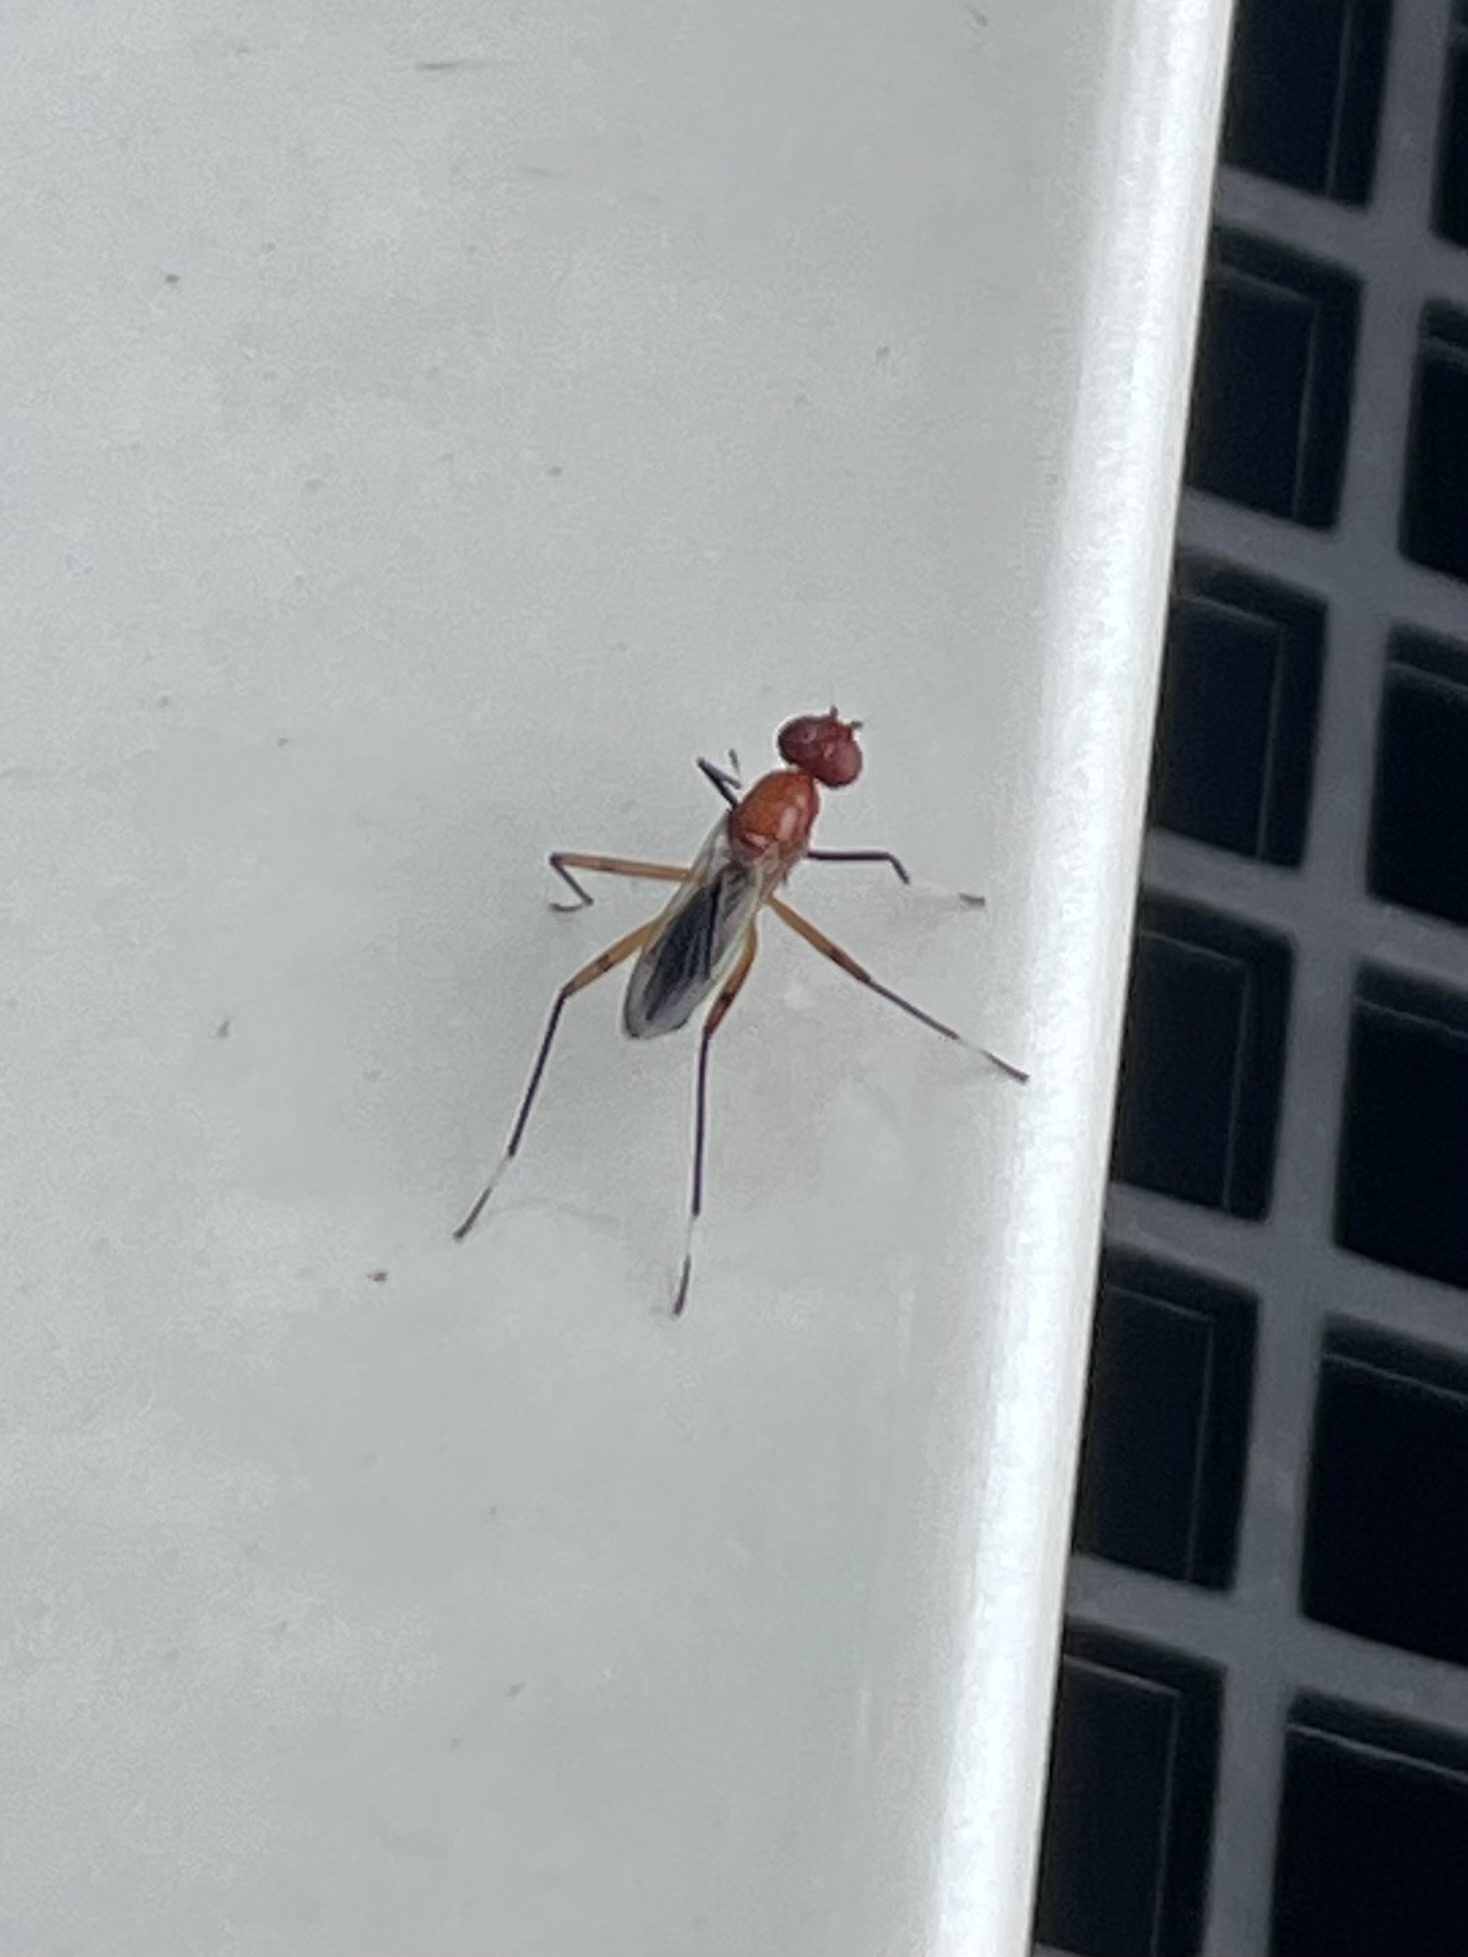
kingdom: Animalia
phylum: Arthropoda
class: Insecta
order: Diptera
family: Micropezidae
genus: Grallipeza
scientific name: Grallipeza nebulosa
